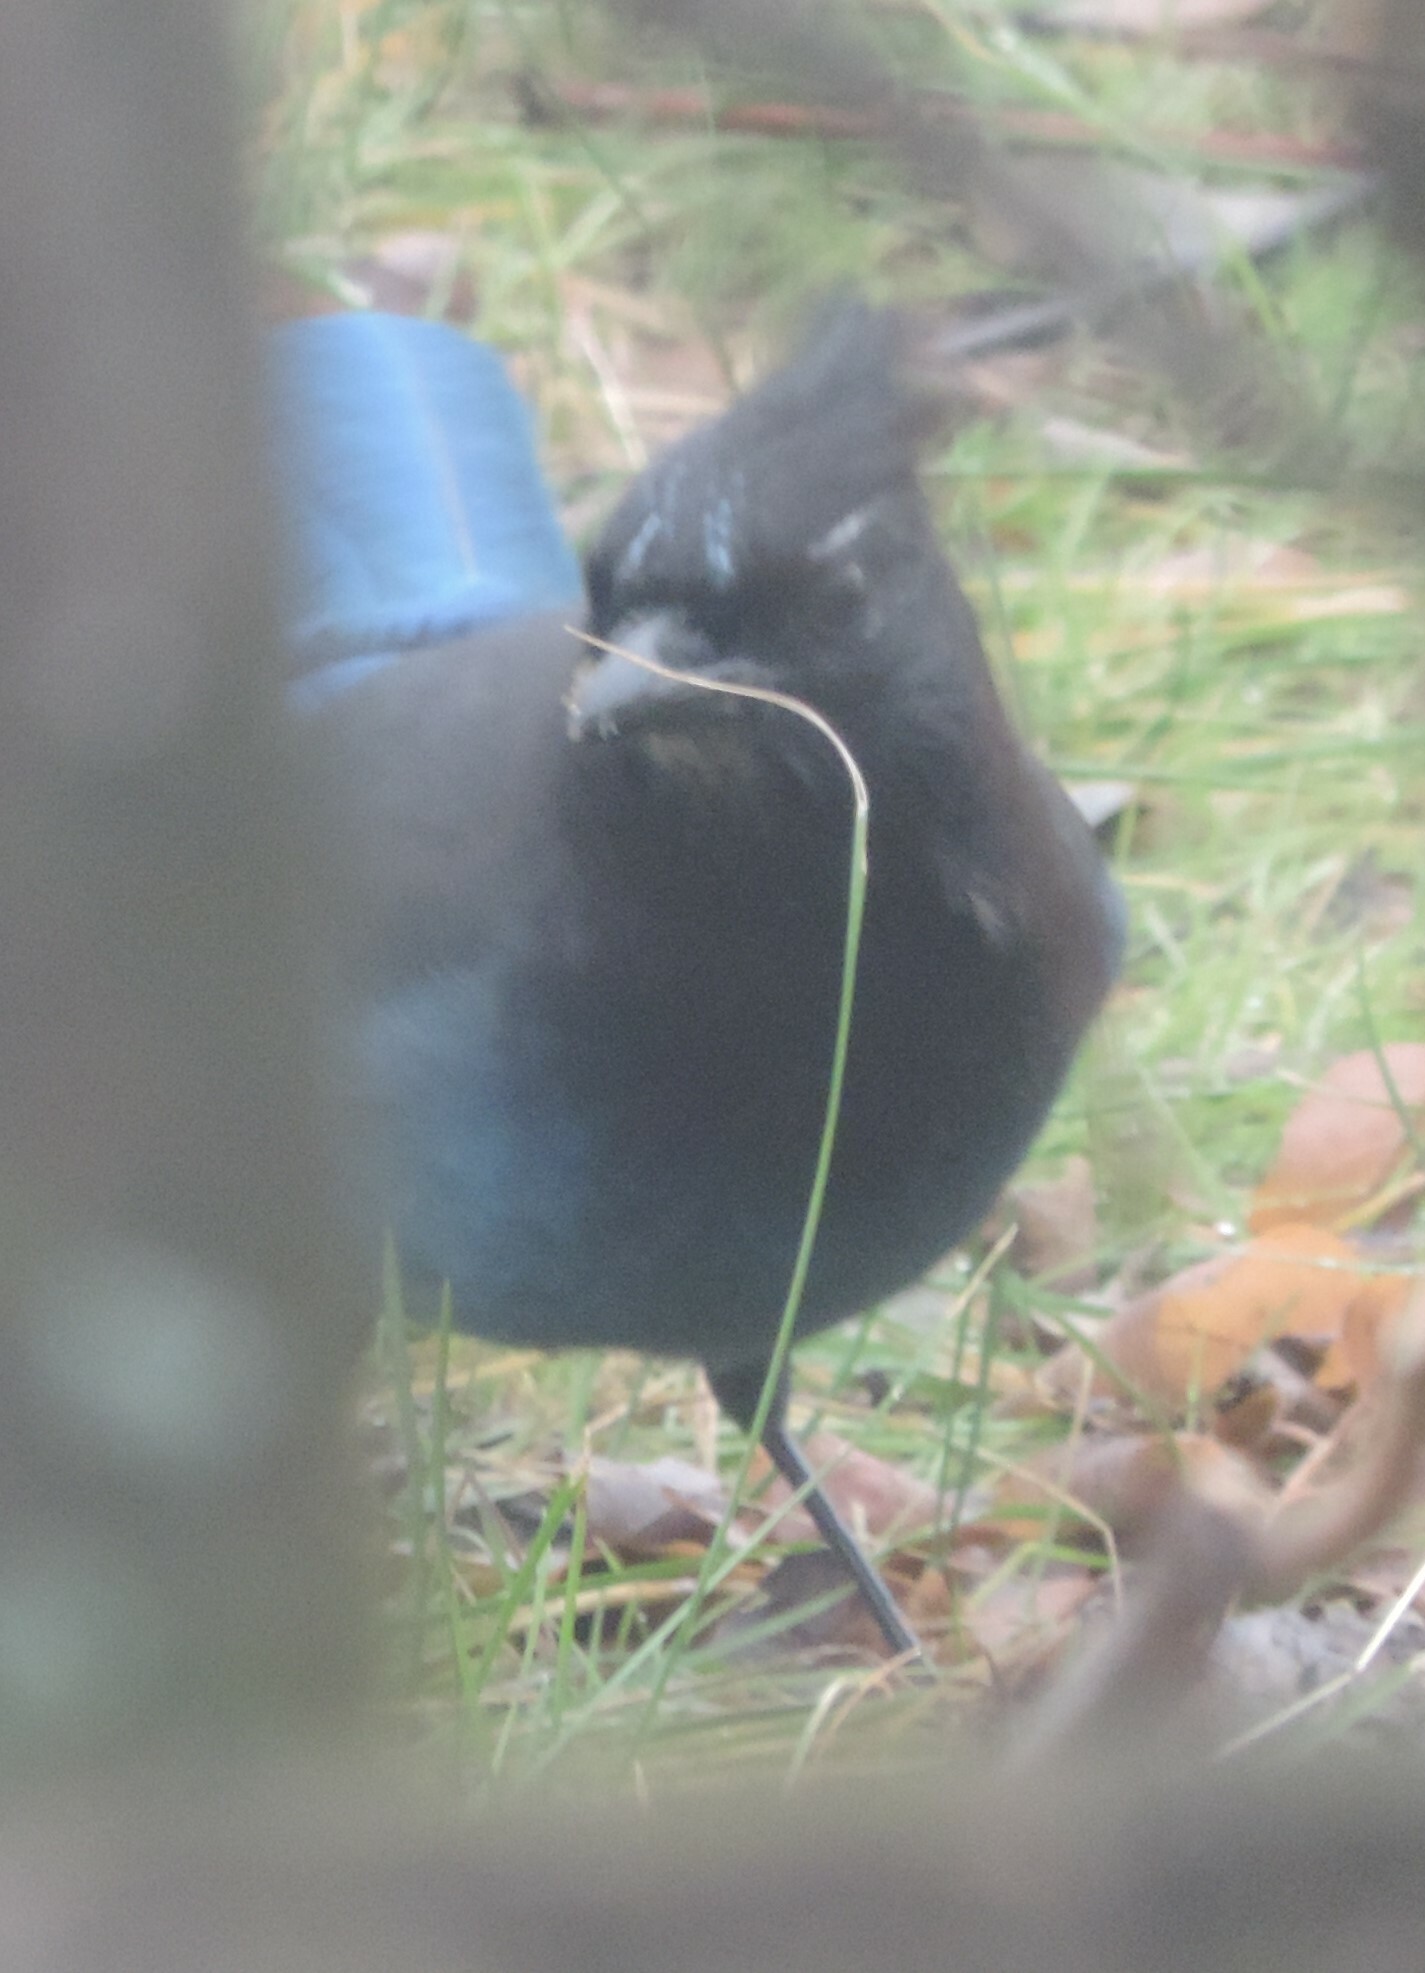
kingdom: Animalia
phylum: Chordata
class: Aves
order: Passeriformes
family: Corvidae
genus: Cyanocitta
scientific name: Cyanocitta stelleri
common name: Steller's jay
